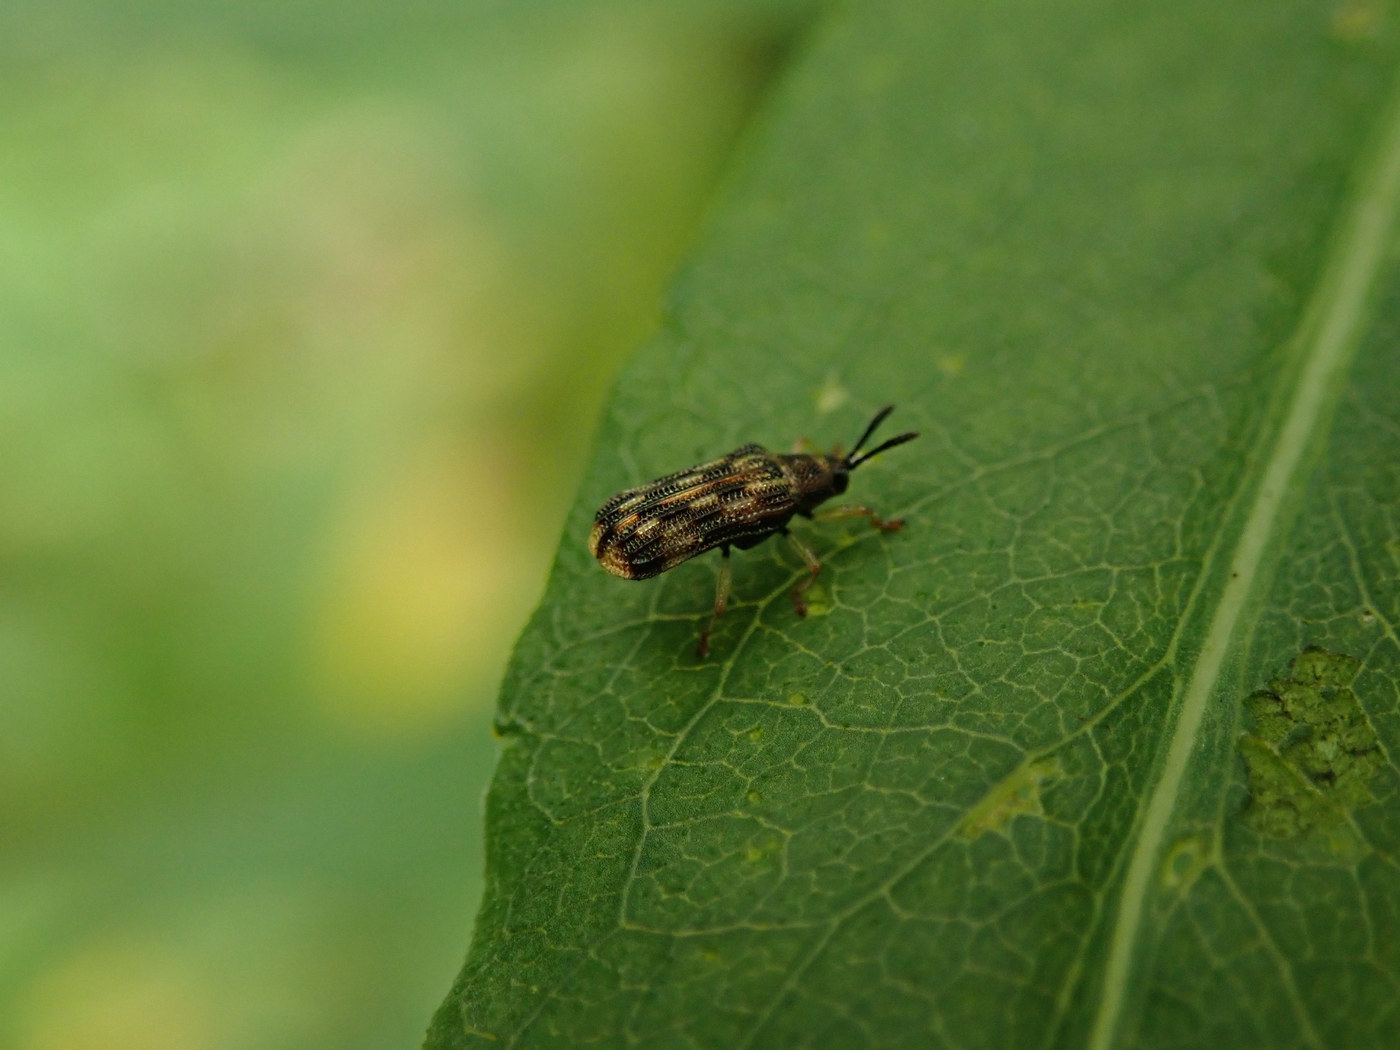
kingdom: Animalia
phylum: Arthropoda
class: Insecta
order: Coleoptera
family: Chrysomelidae
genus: Sumitrosis
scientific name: Sumitrosis inaequalis
